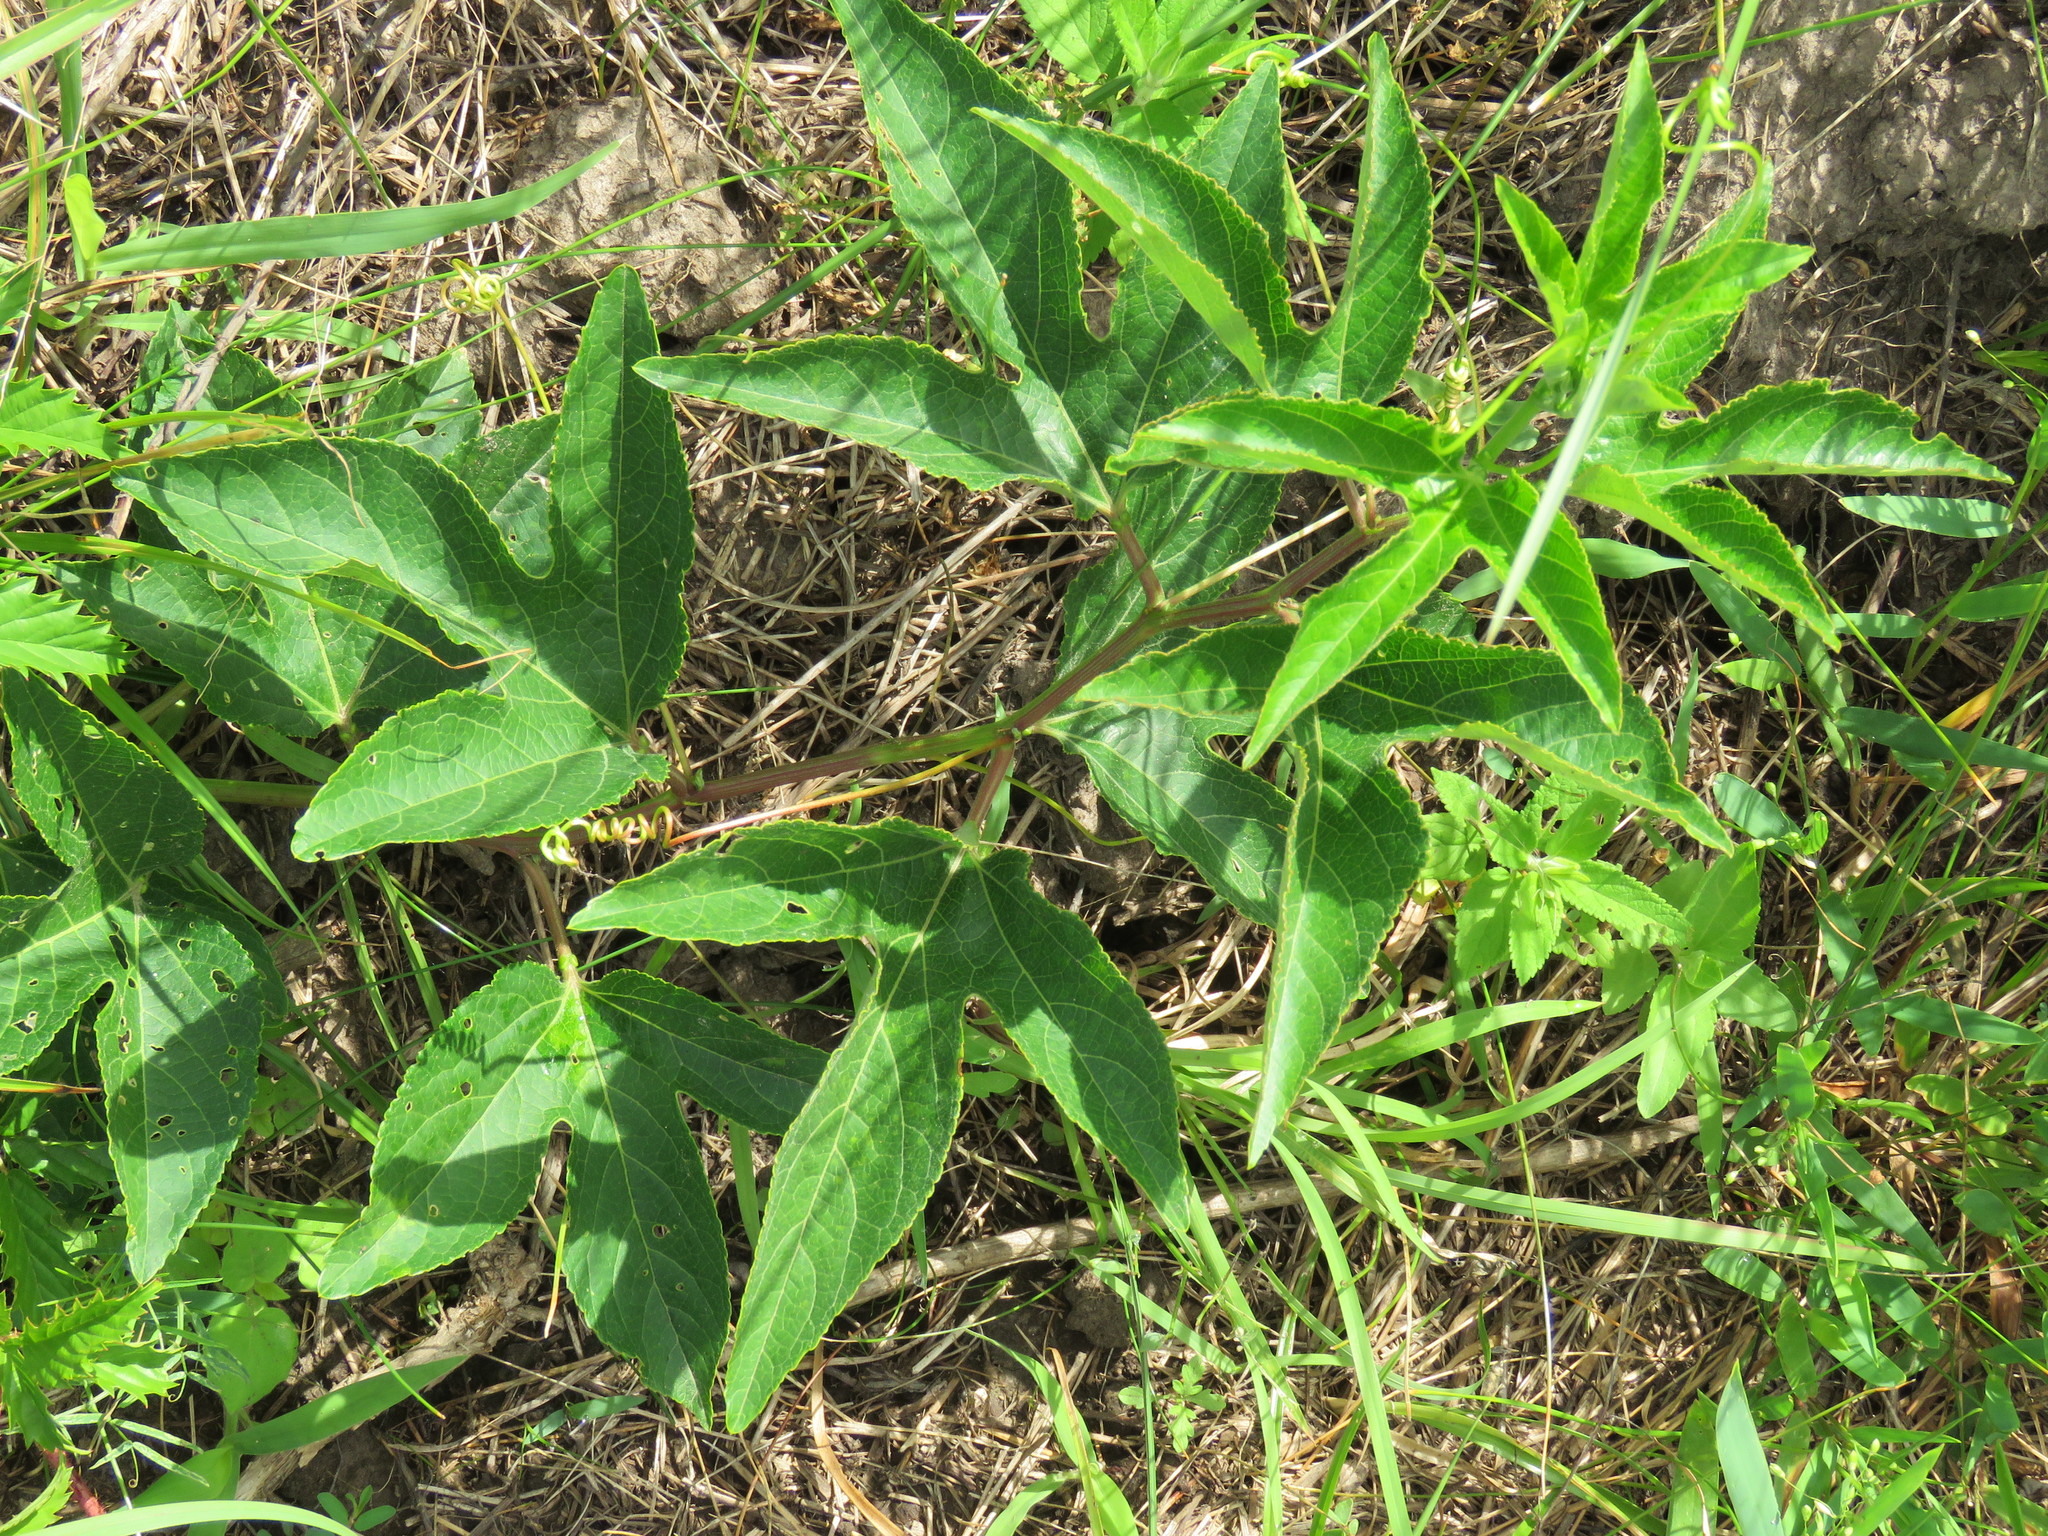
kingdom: Plantae
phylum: Tracheophyta
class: Magnoliopsida
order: Malpighiales
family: Passifloraceae
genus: Passiflora
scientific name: Passiflora incarnata
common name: Apricot-vine
